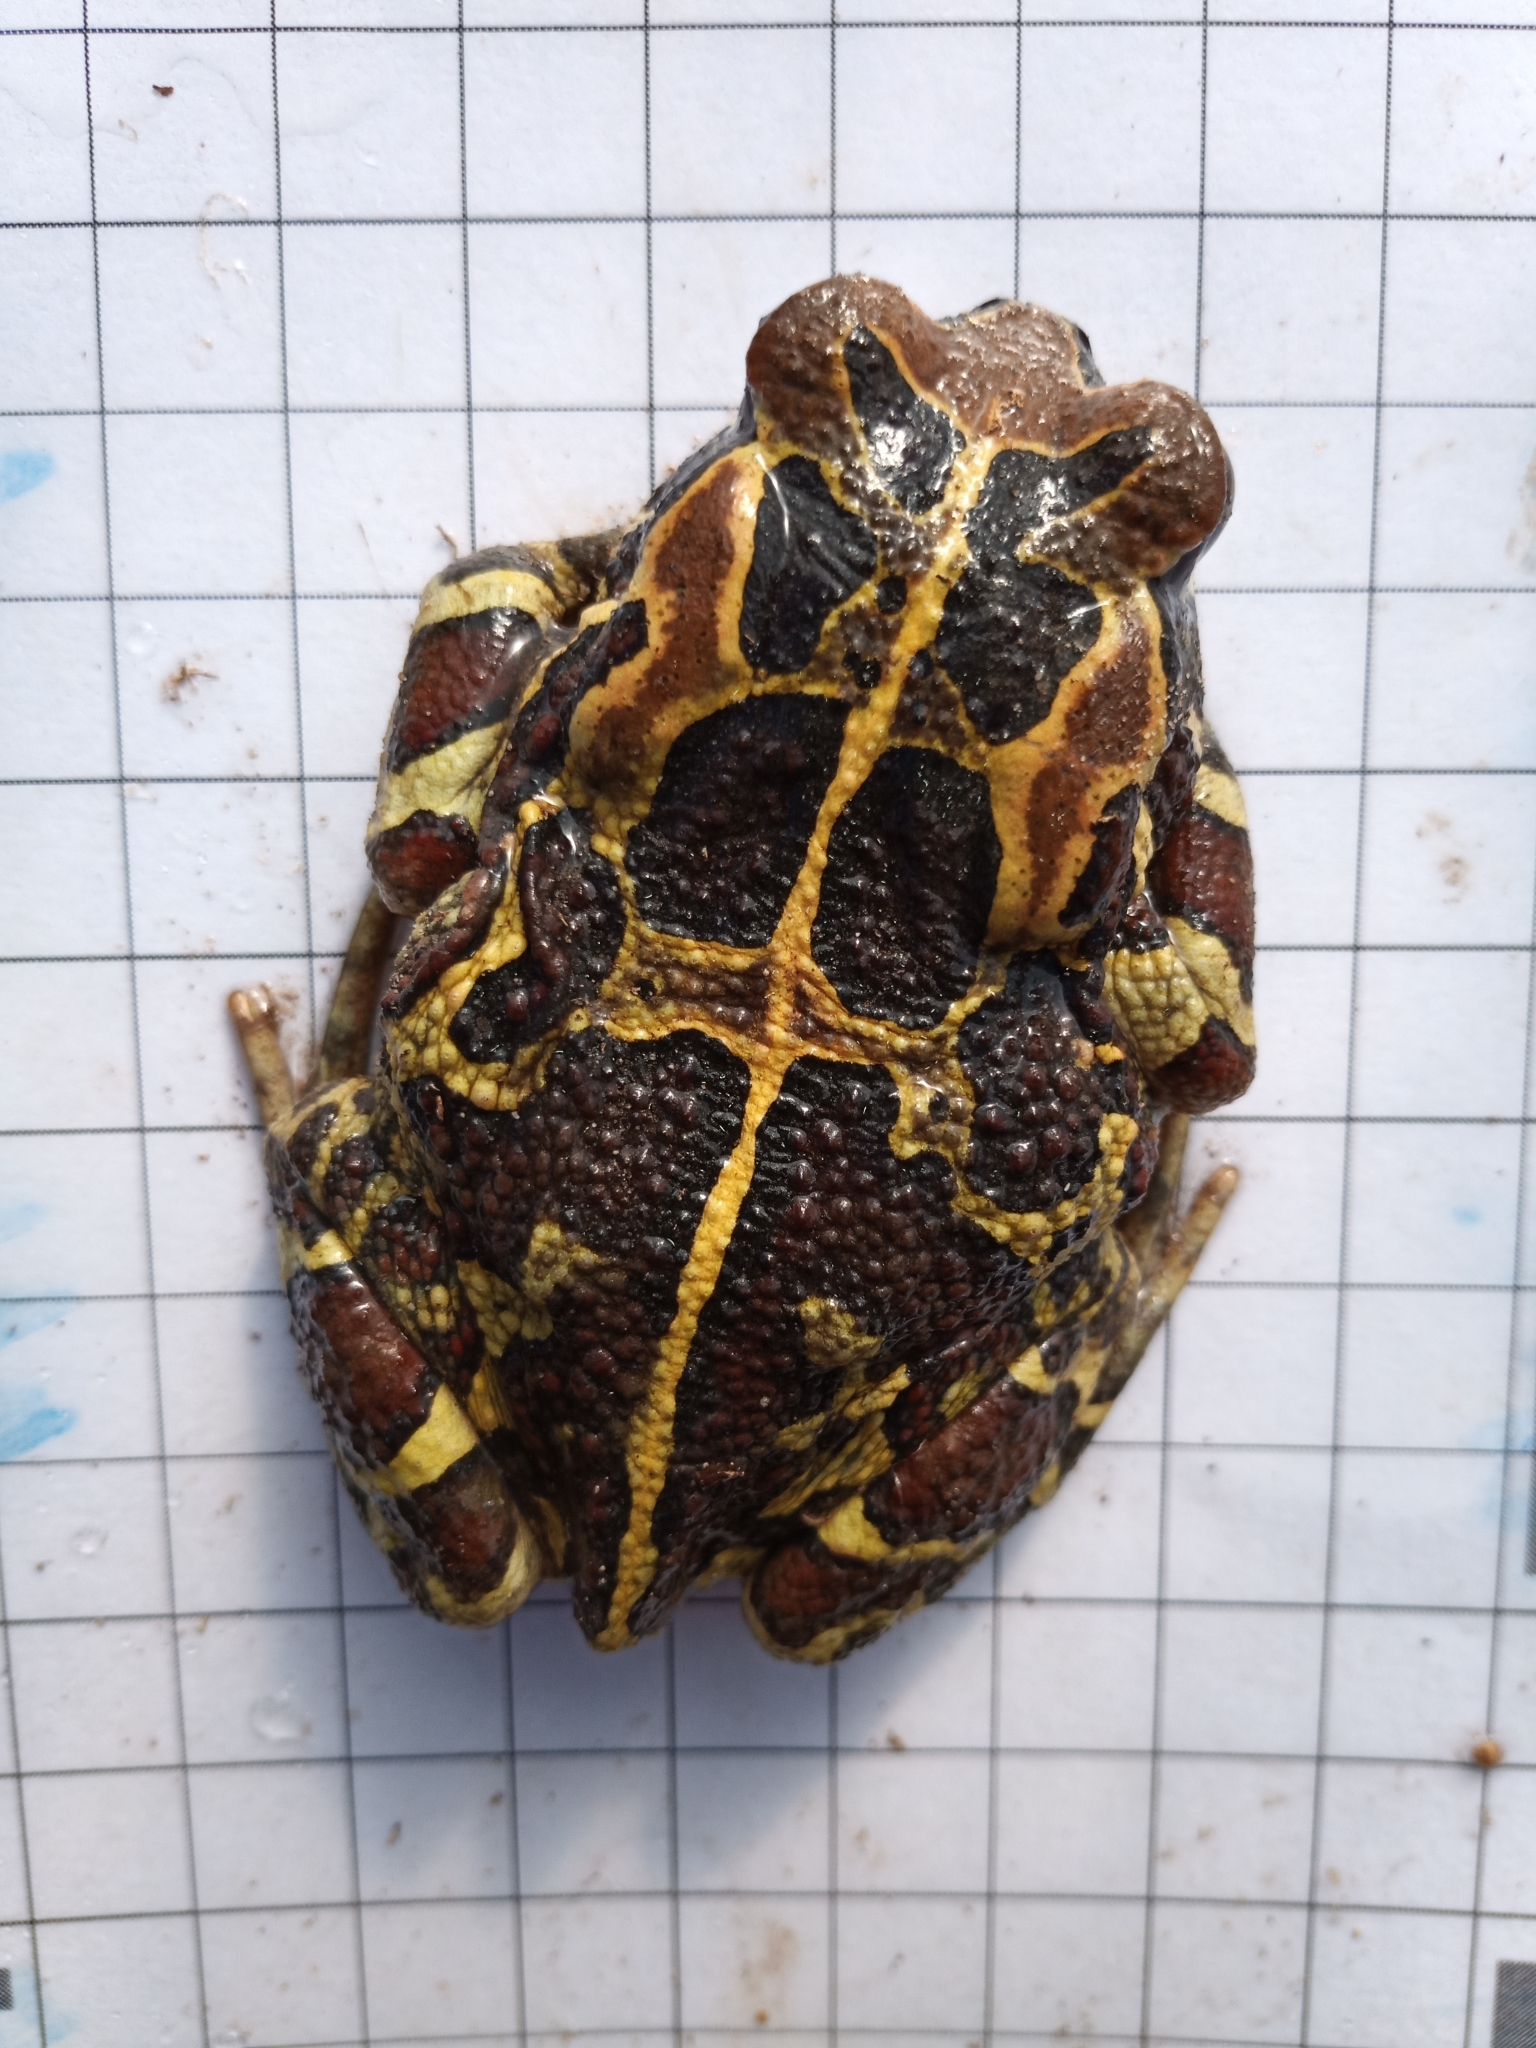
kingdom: Animalia
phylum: Chordata
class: Amphibia
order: Anura
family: Bufonidae
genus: Sclerophrys
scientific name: Sclerophrys pantherina
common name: Panther toad
